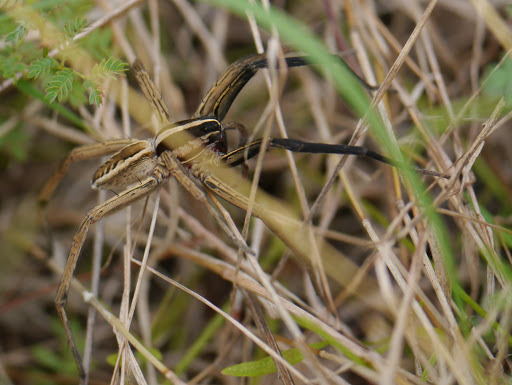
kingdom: Animalia
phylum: Arthropoda
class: Arachnida
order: Araneae
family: Lycosidae
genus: Rabidosa
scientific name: Rabidosa rabida
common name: Rabid wolf spider
